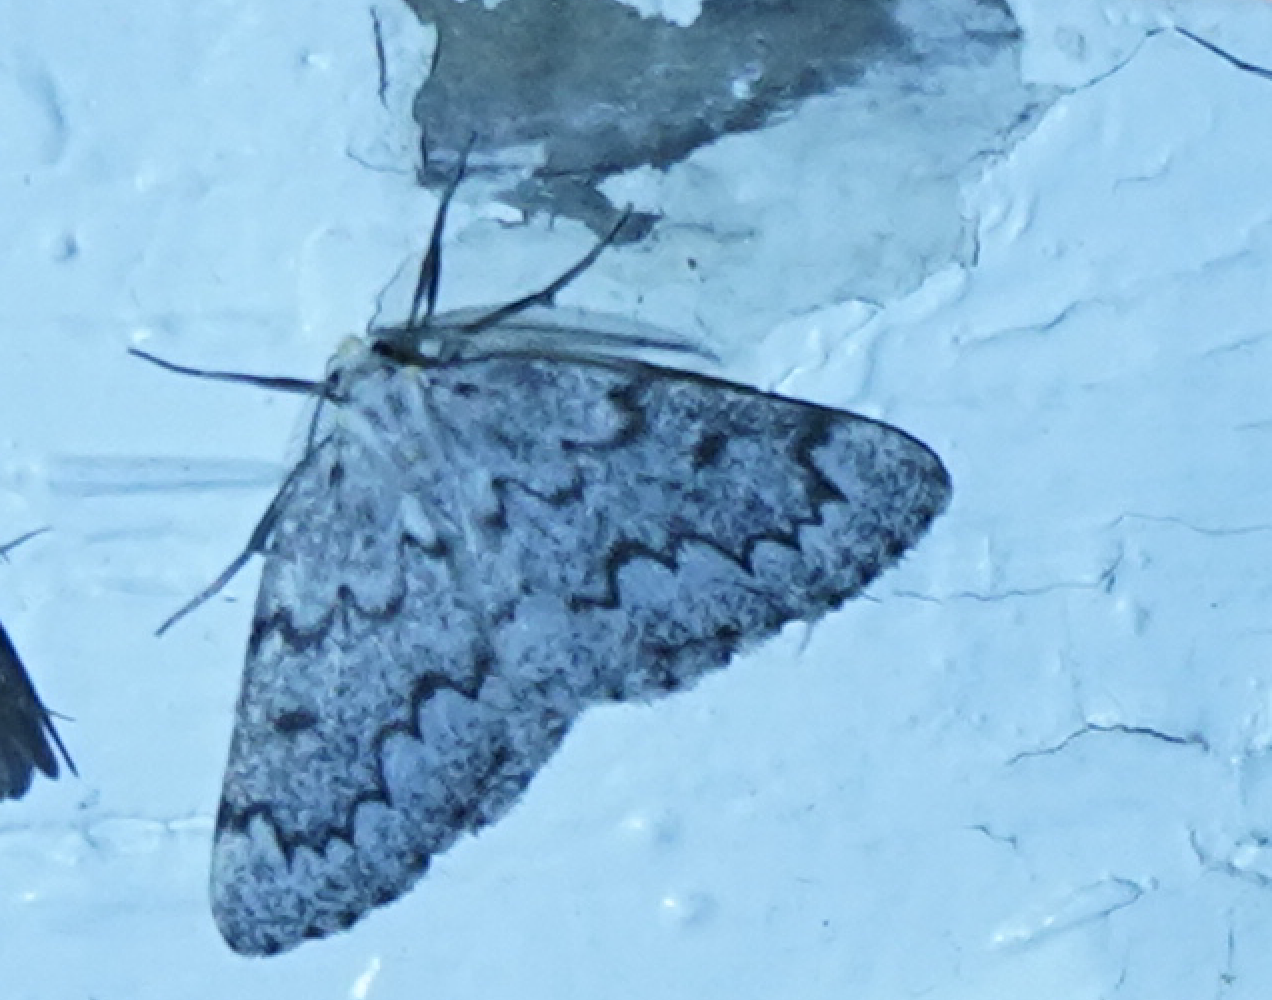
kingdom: Animalia
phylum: Arthropoda
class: Insecta
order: Lepidoptera
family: Geometridae
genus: Nepytia
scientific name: Nepytia canosaria
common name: False hemlock looper
